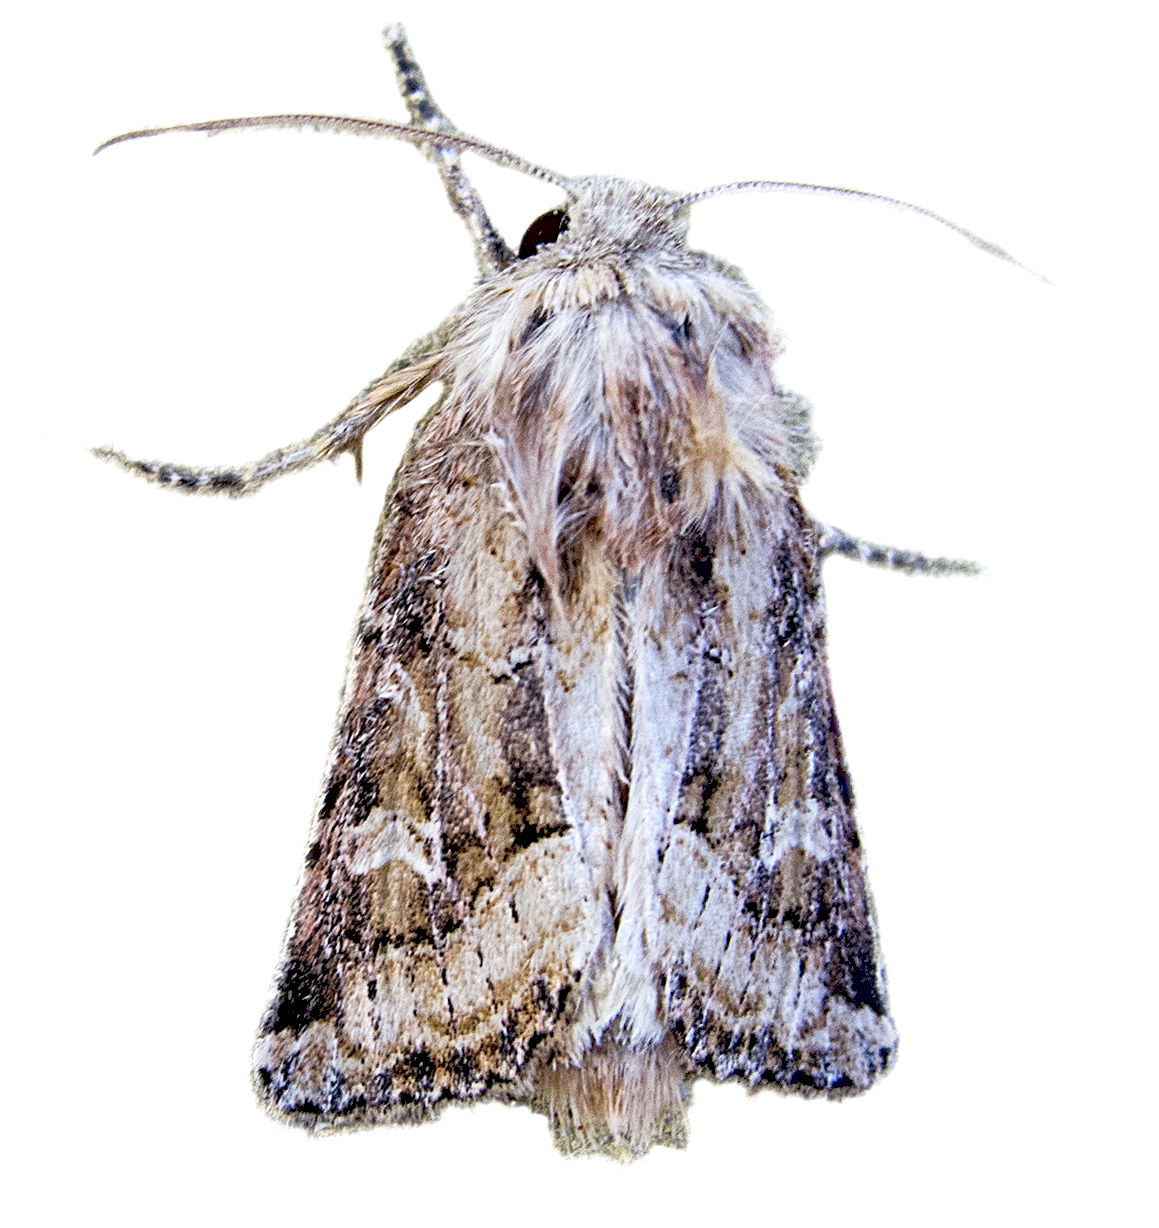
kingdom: Animalia
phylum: Arthropoda
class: Insecta
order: Lepidoptera
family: Noctuidae
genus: Luperina
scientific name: Luperina dumerilii
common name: Dumeril's rustic
